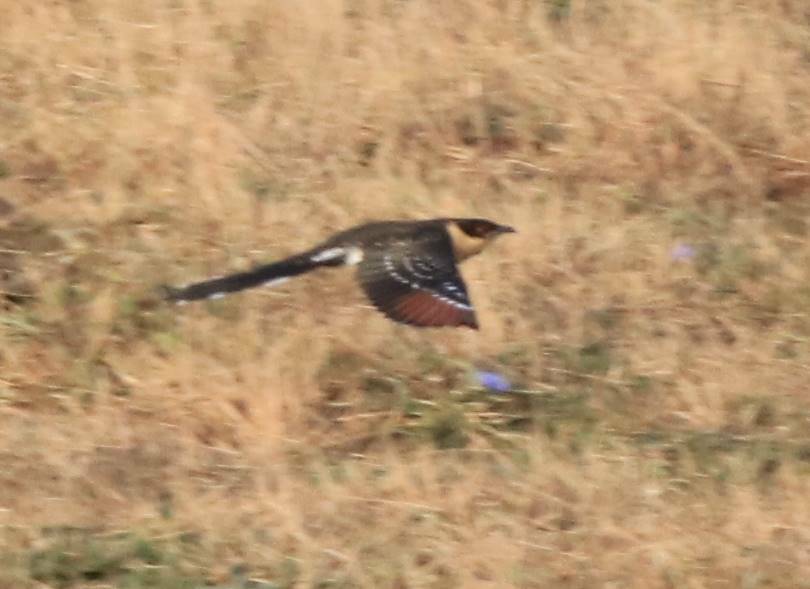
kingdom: Animalia
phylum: Chordata
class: Aves
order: Cuculiformes
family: Cuculidae
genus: Clamator
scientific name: Clamator glandarius
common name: Great spotted cuckoo
